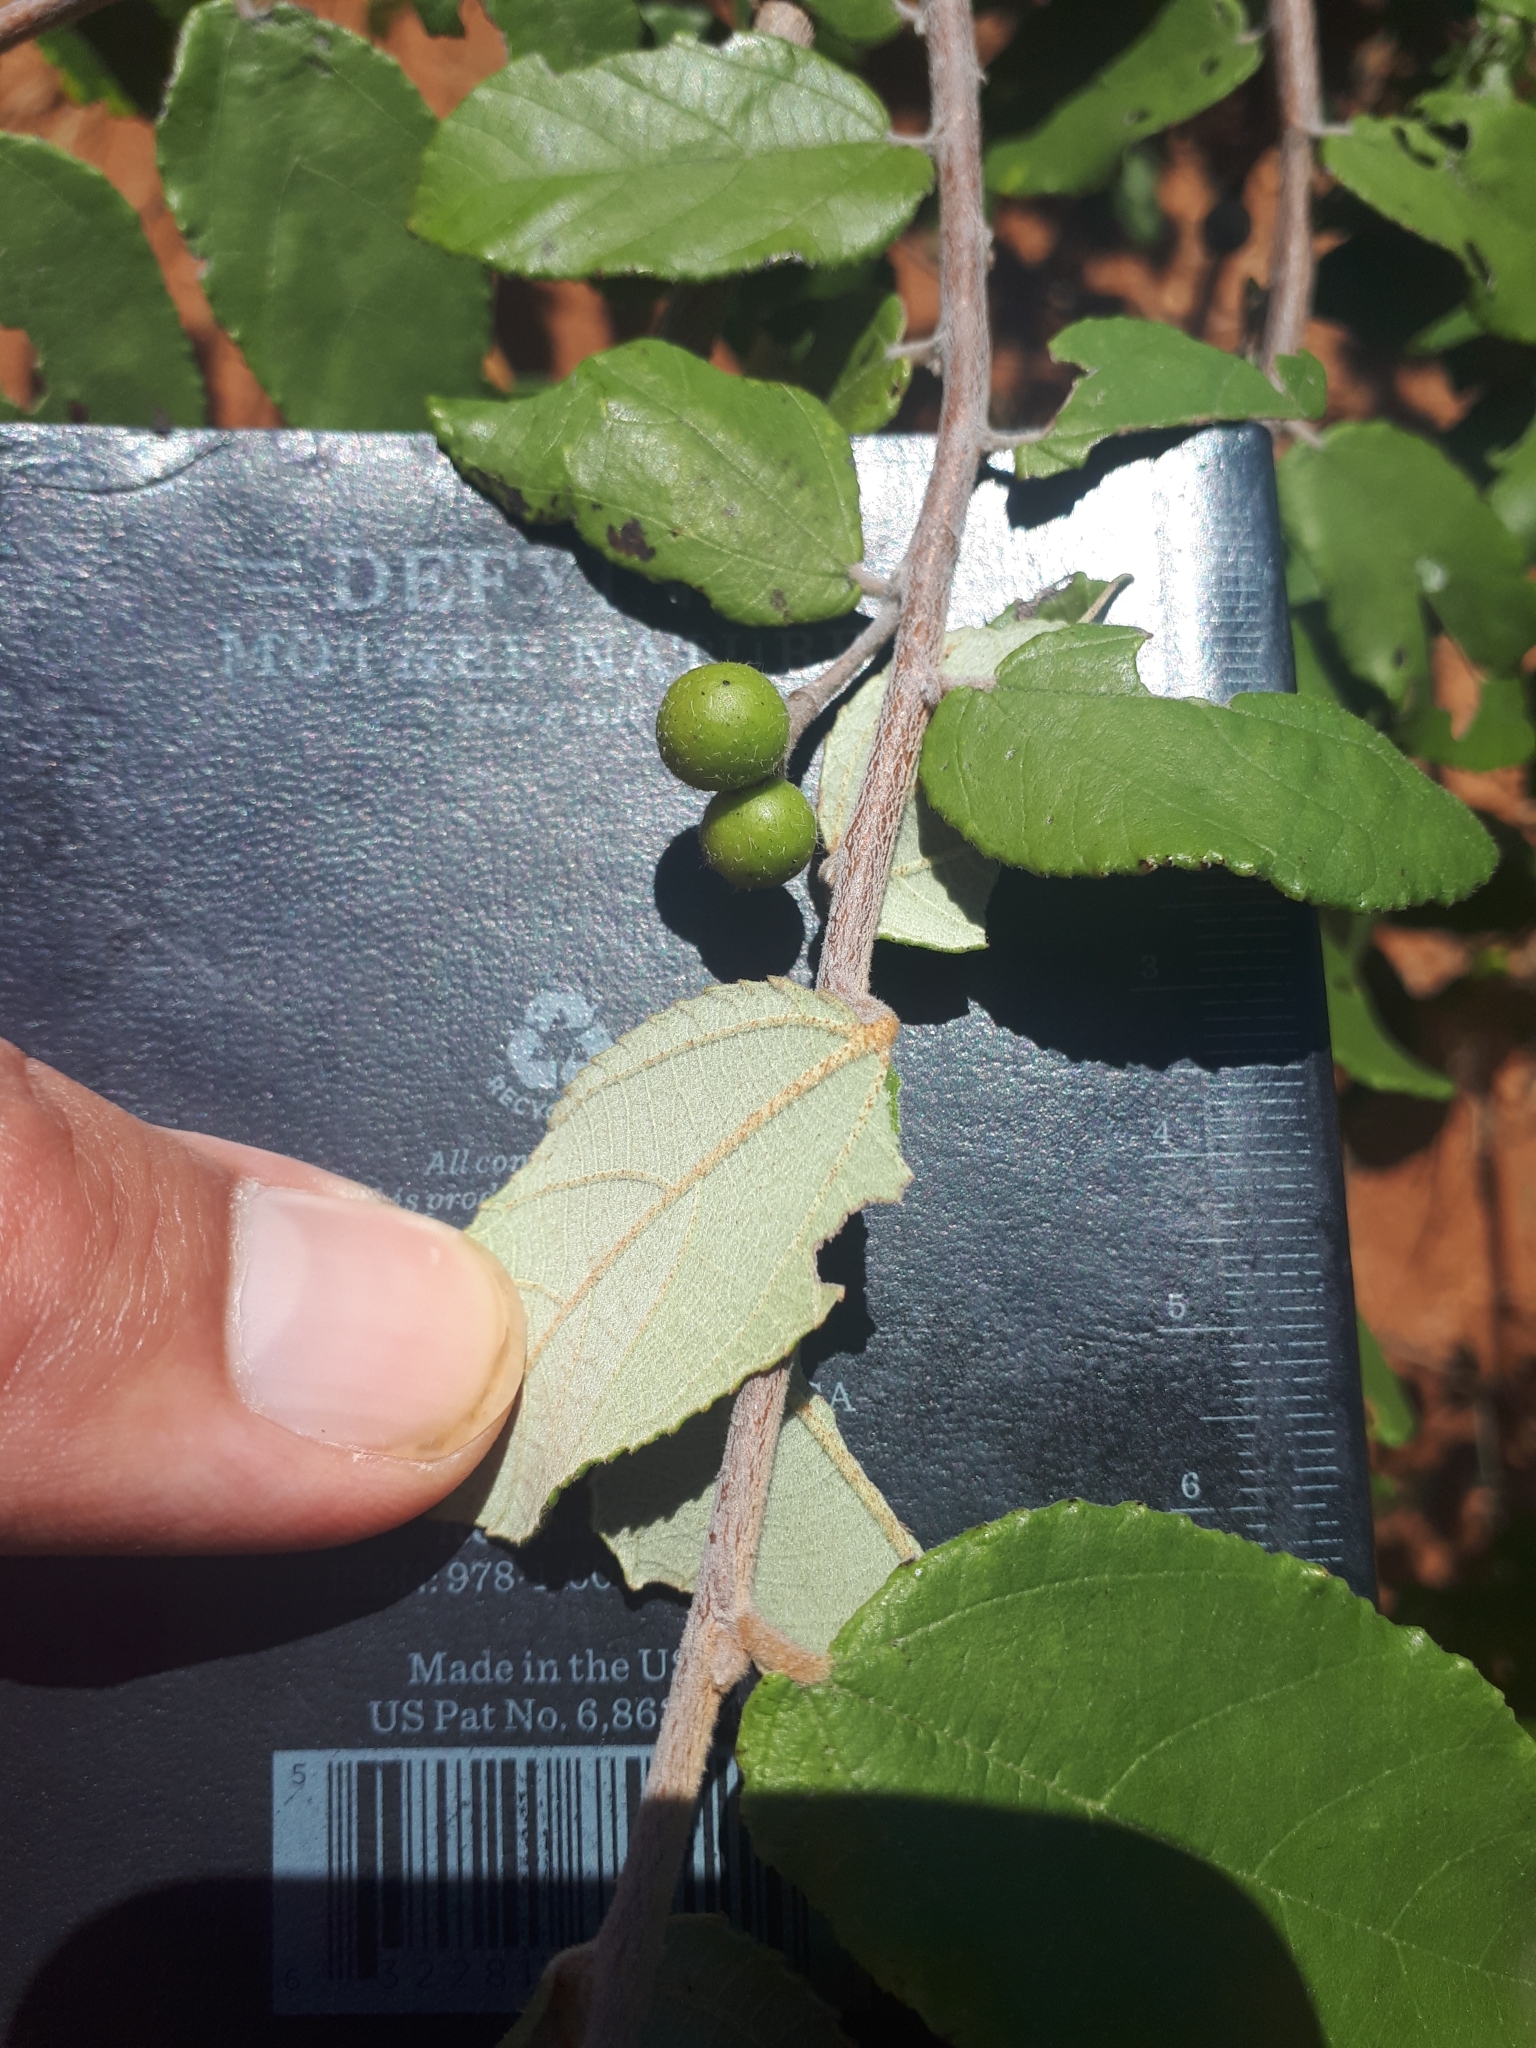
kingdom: Plantae
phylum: Tracheophyta
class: Magnoliopsida
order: Malvales
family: Malvaceae
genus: Grewia
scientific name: Grewia monticola
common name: Grey raisin
